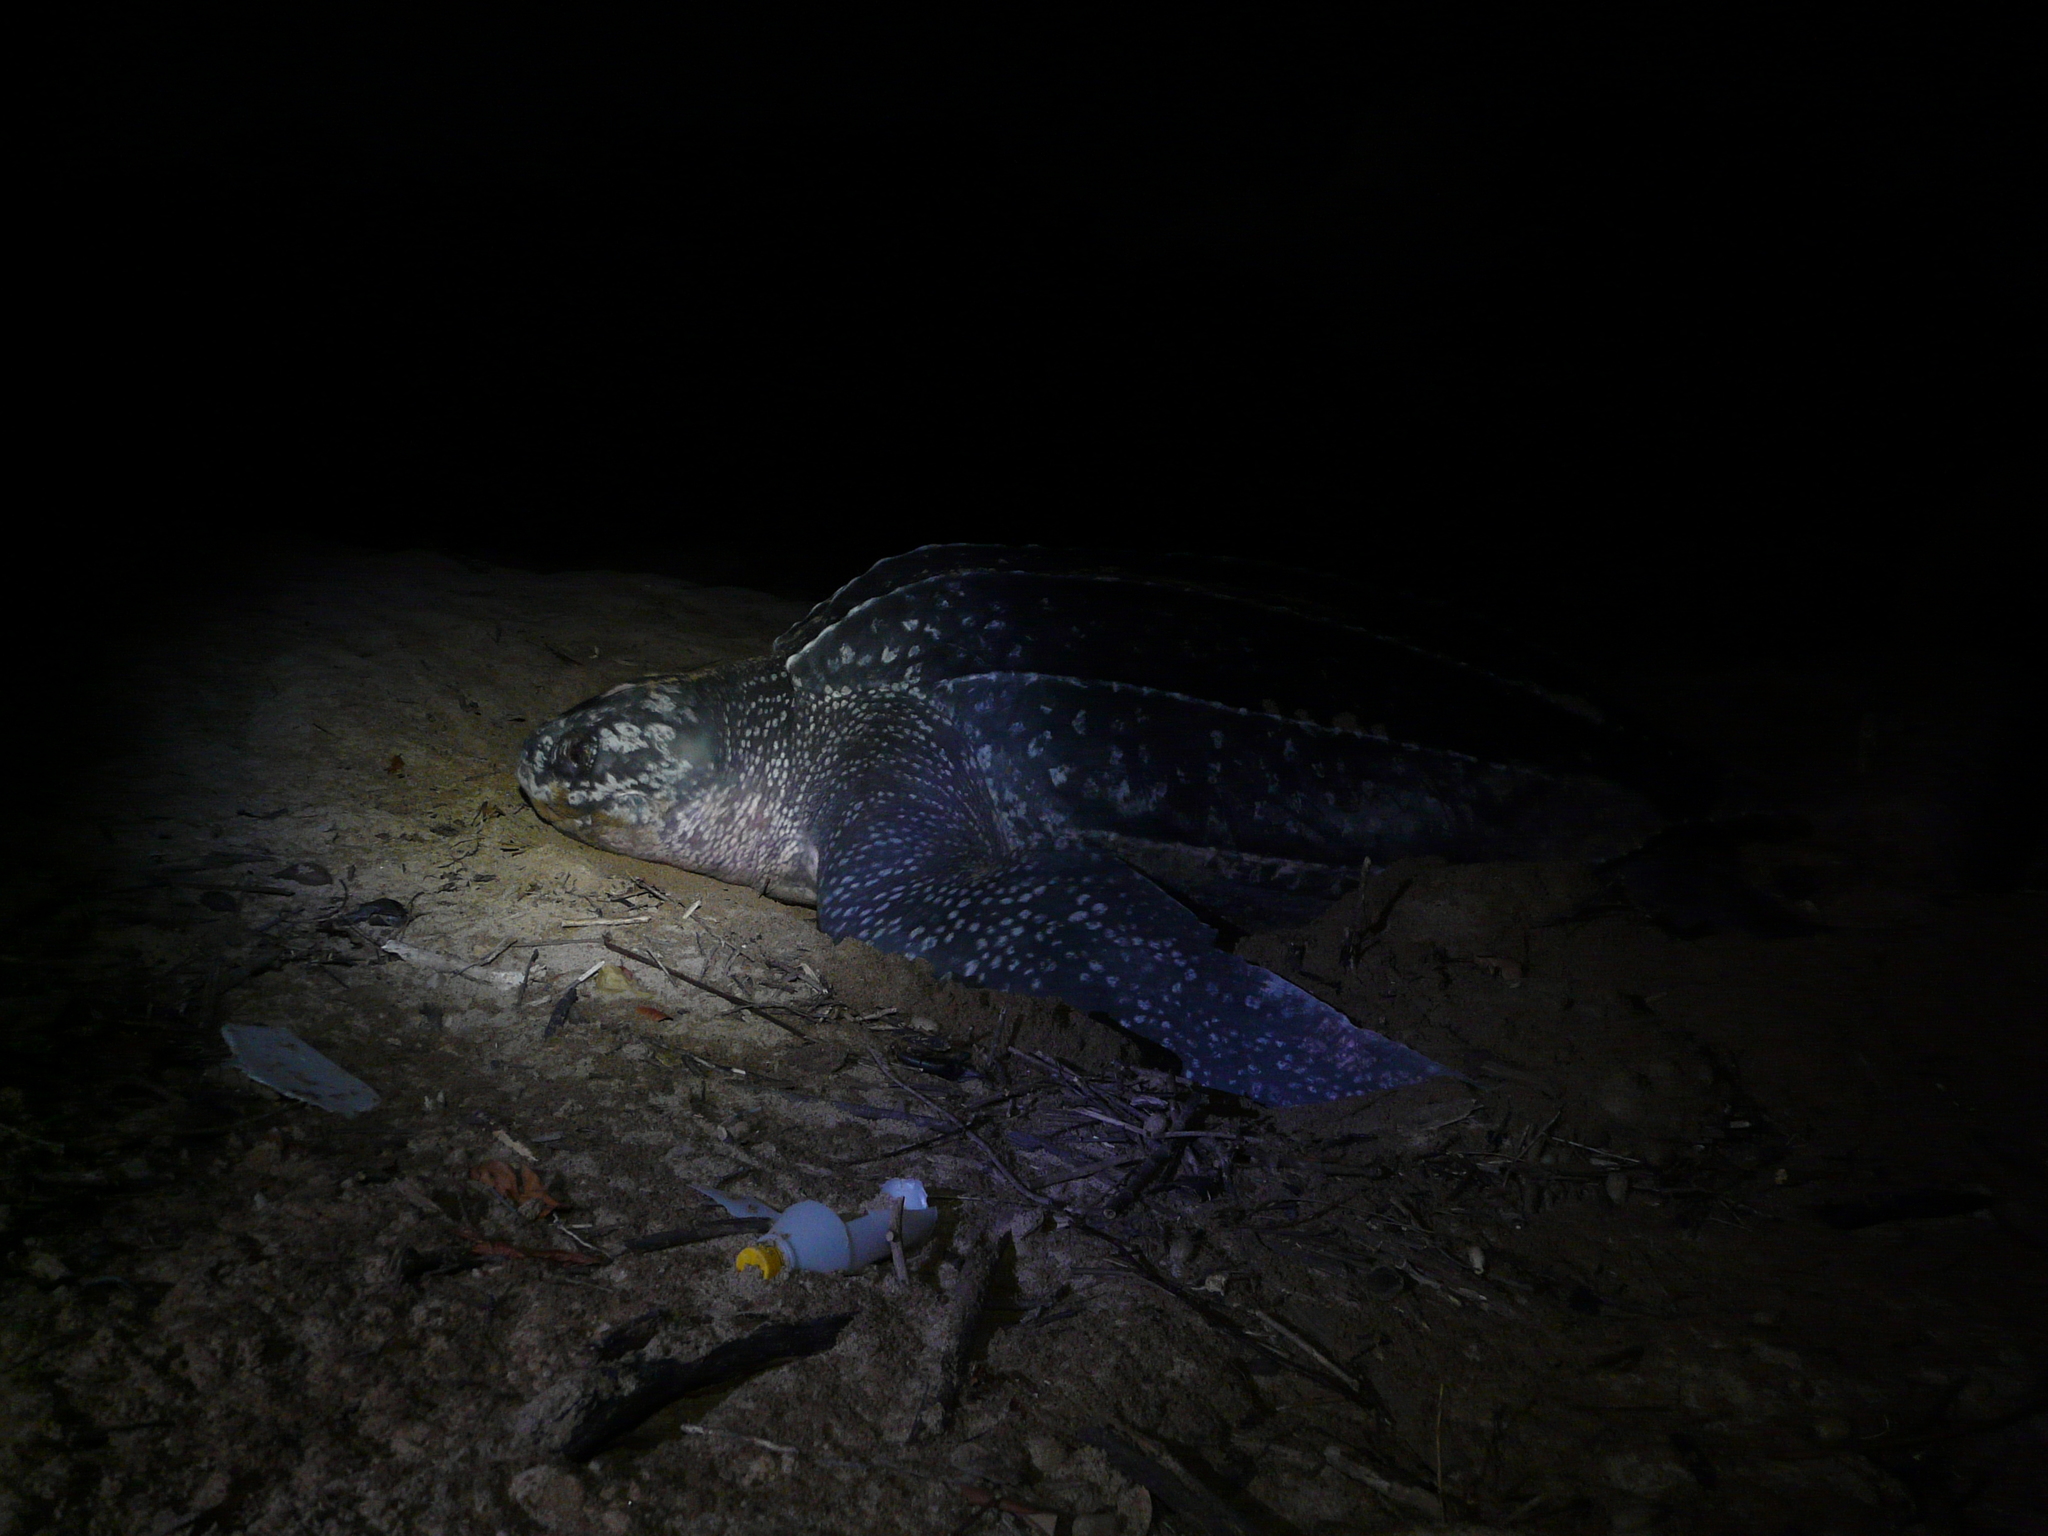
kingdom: Animalia
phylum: Chordata
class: Testudines
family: Dermochelyidae
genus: Dermochelys
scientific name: Dermochelys coriacea
